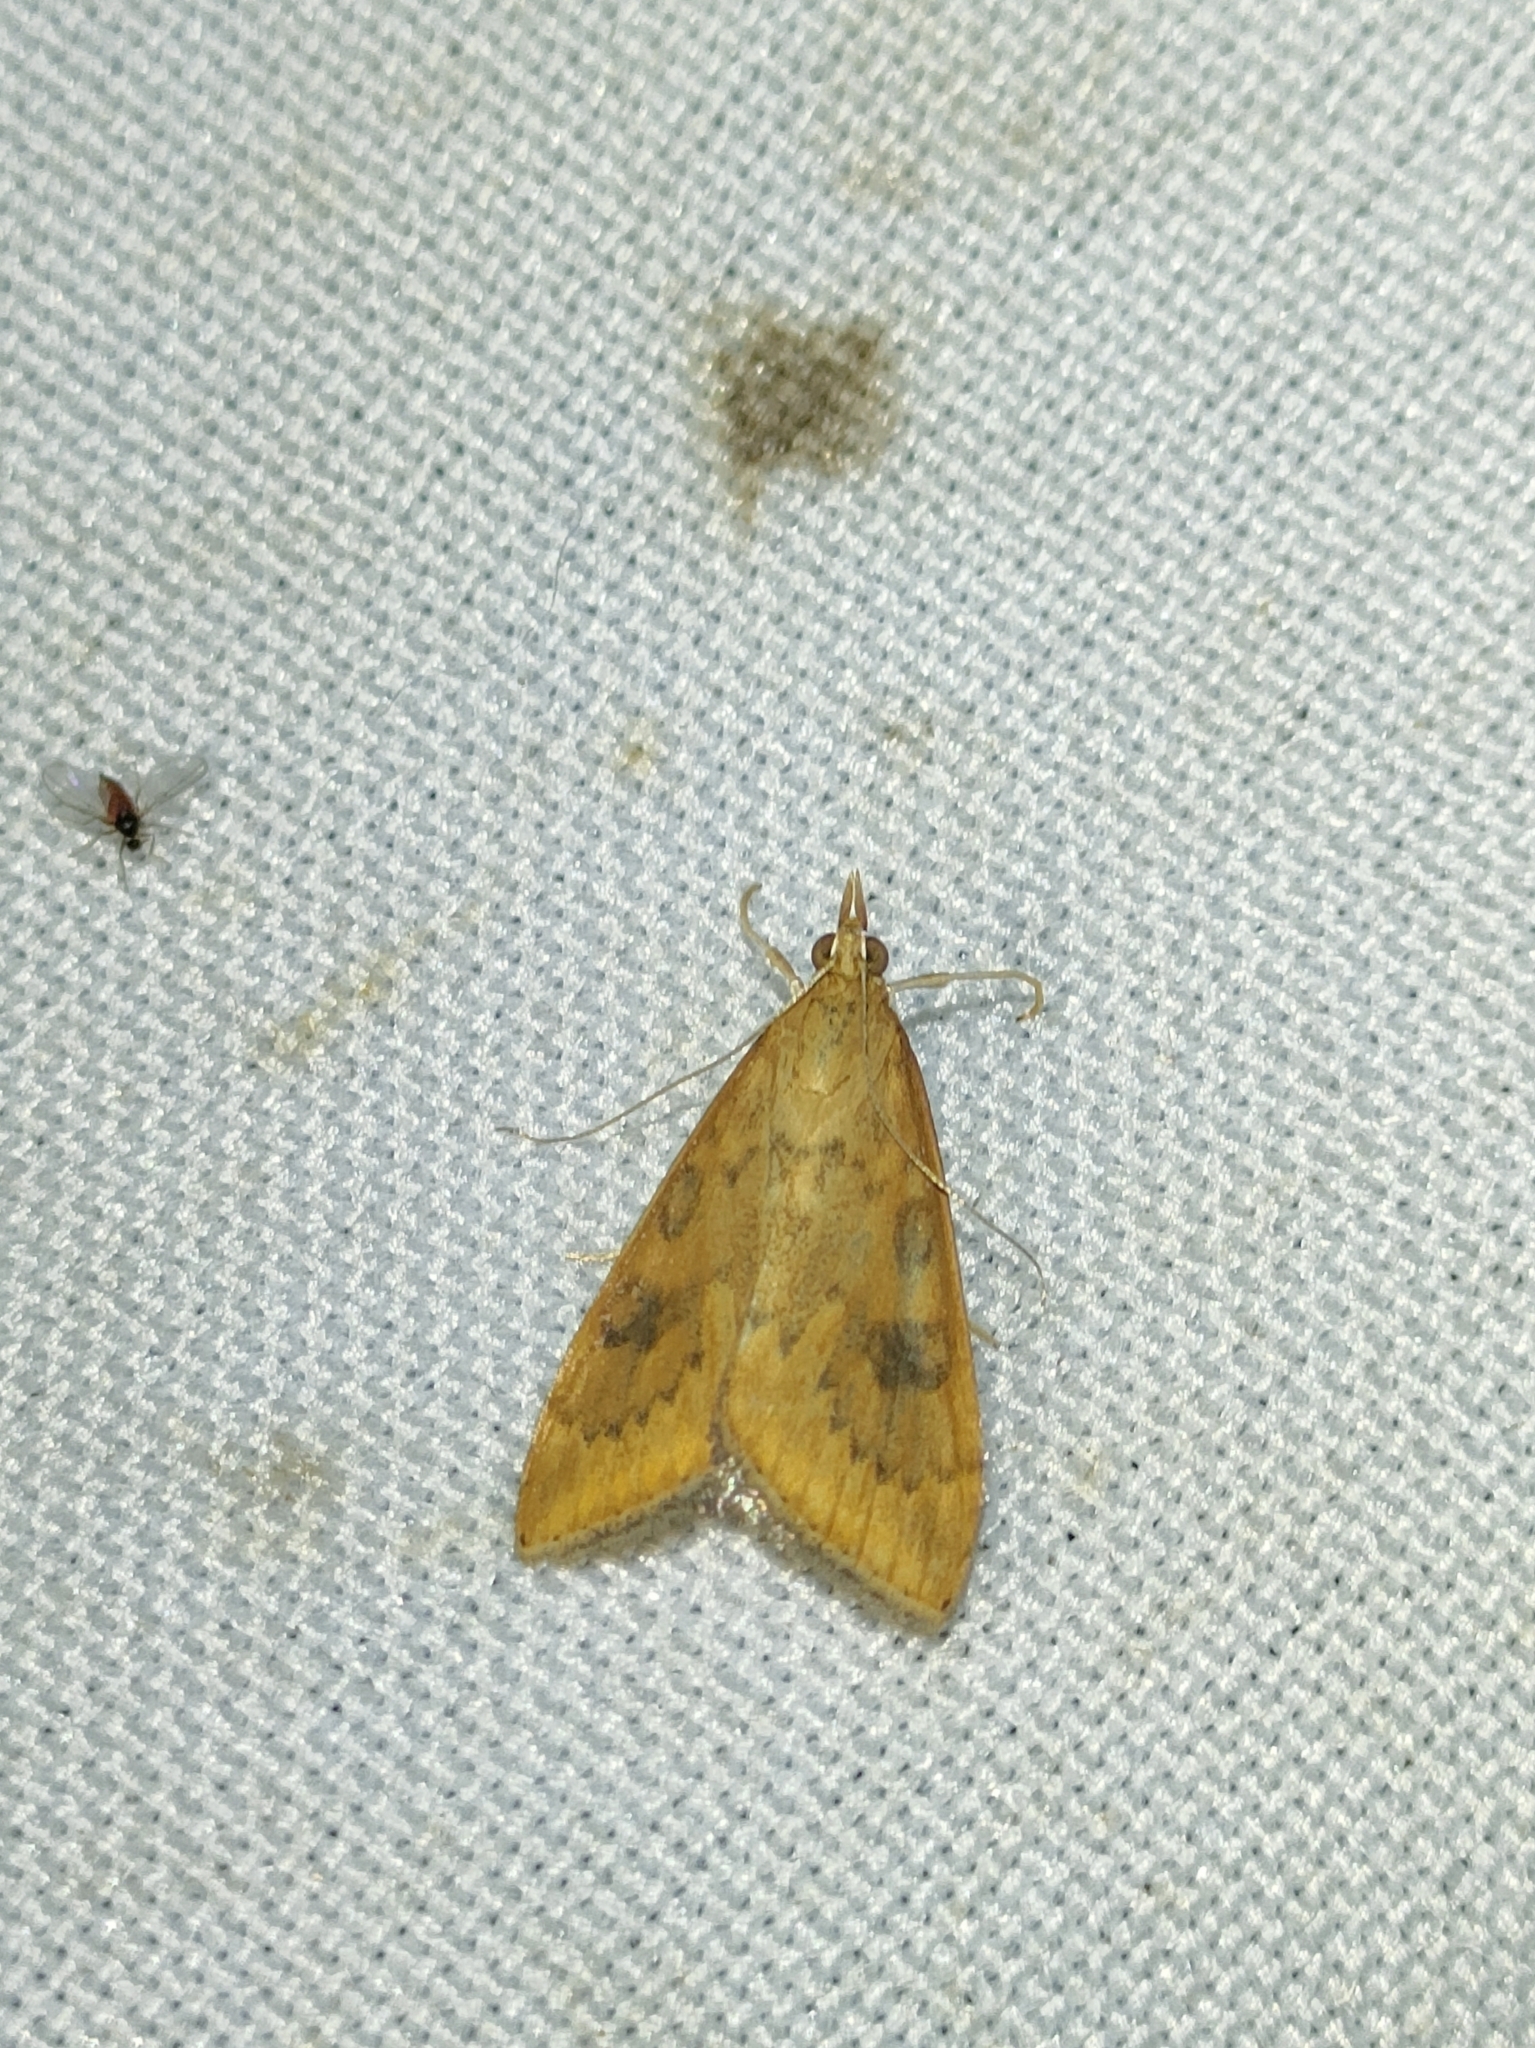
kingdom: Animalia
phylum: Arthropoda
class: Insecta
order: Lepidoptera
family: Crambidae
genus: Udea
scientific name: Udea ferrugalis
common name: Rusty dot
